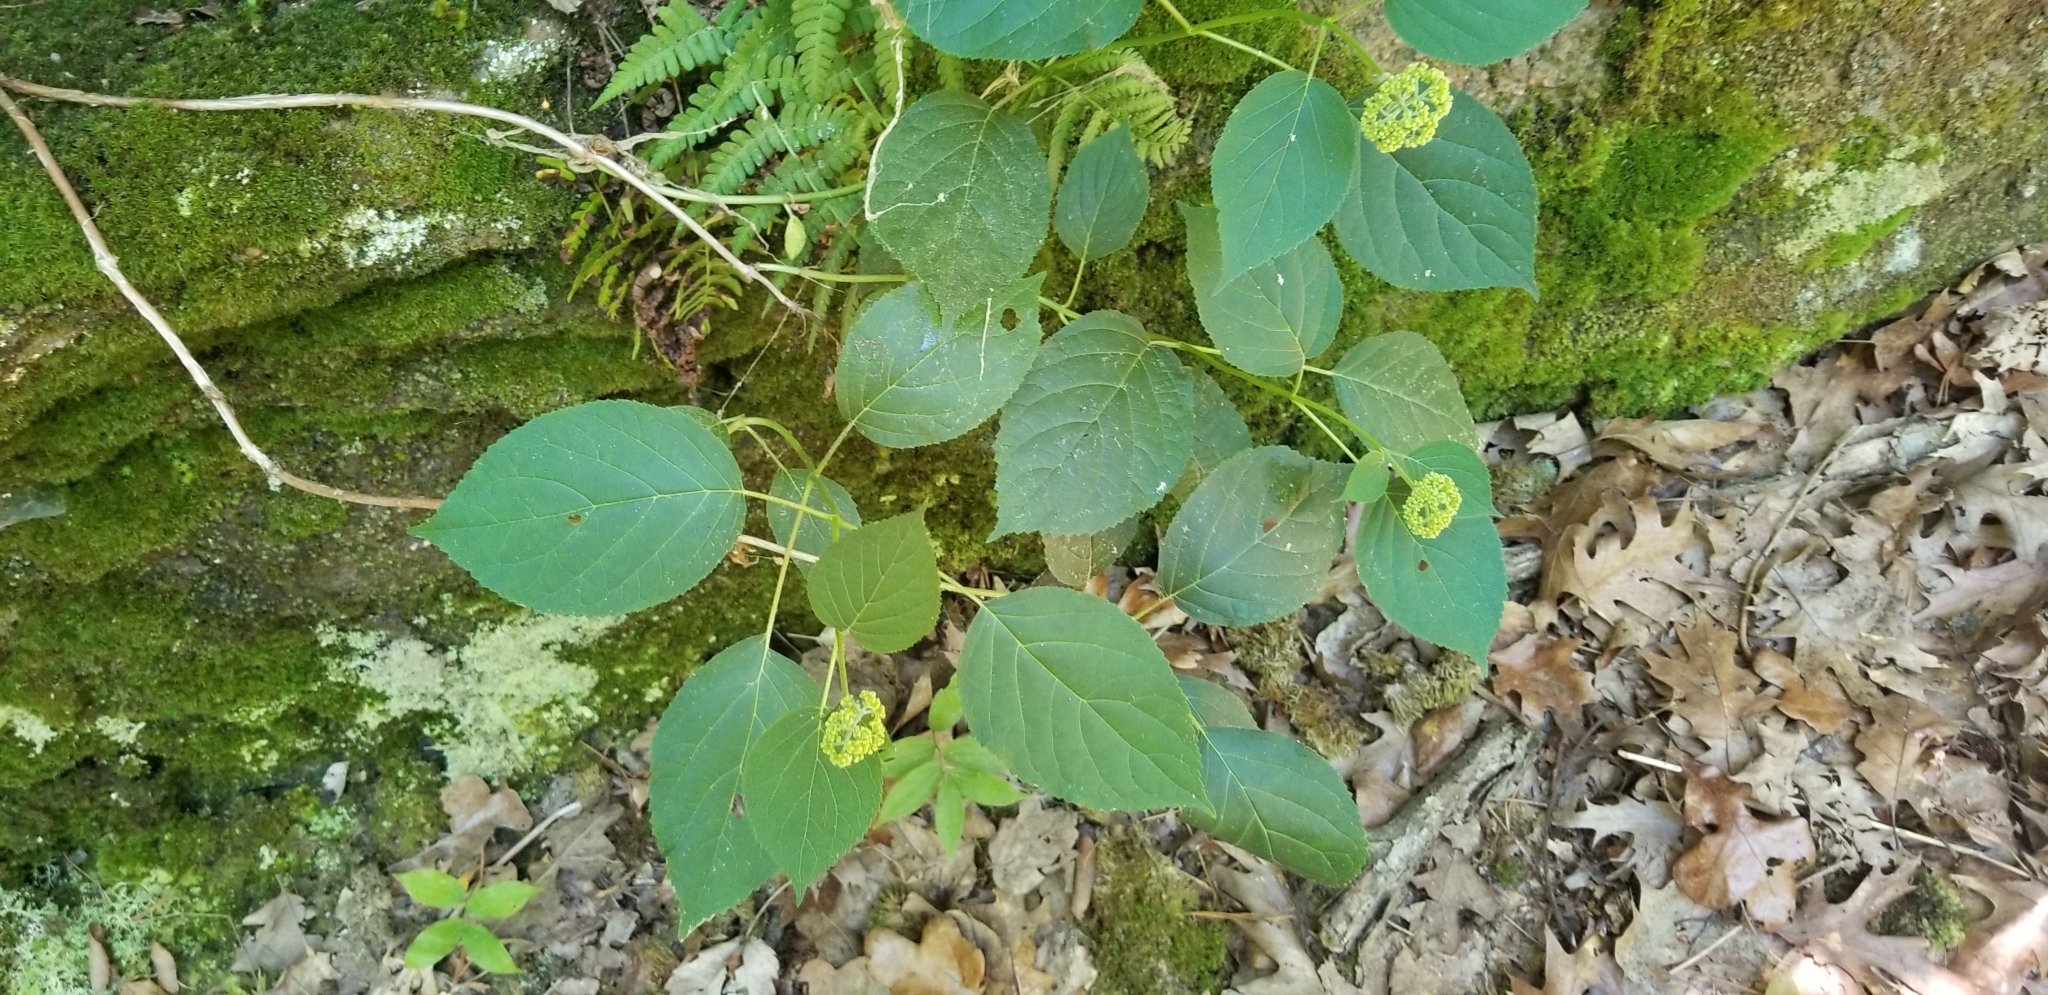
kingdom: Plantae
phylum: Tracheophyta
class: Magnoliopsida
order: Cornales
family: Hydrangeaceae
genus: Hydrangea
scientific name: Hydrangea arborescens
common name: Sevenbark
